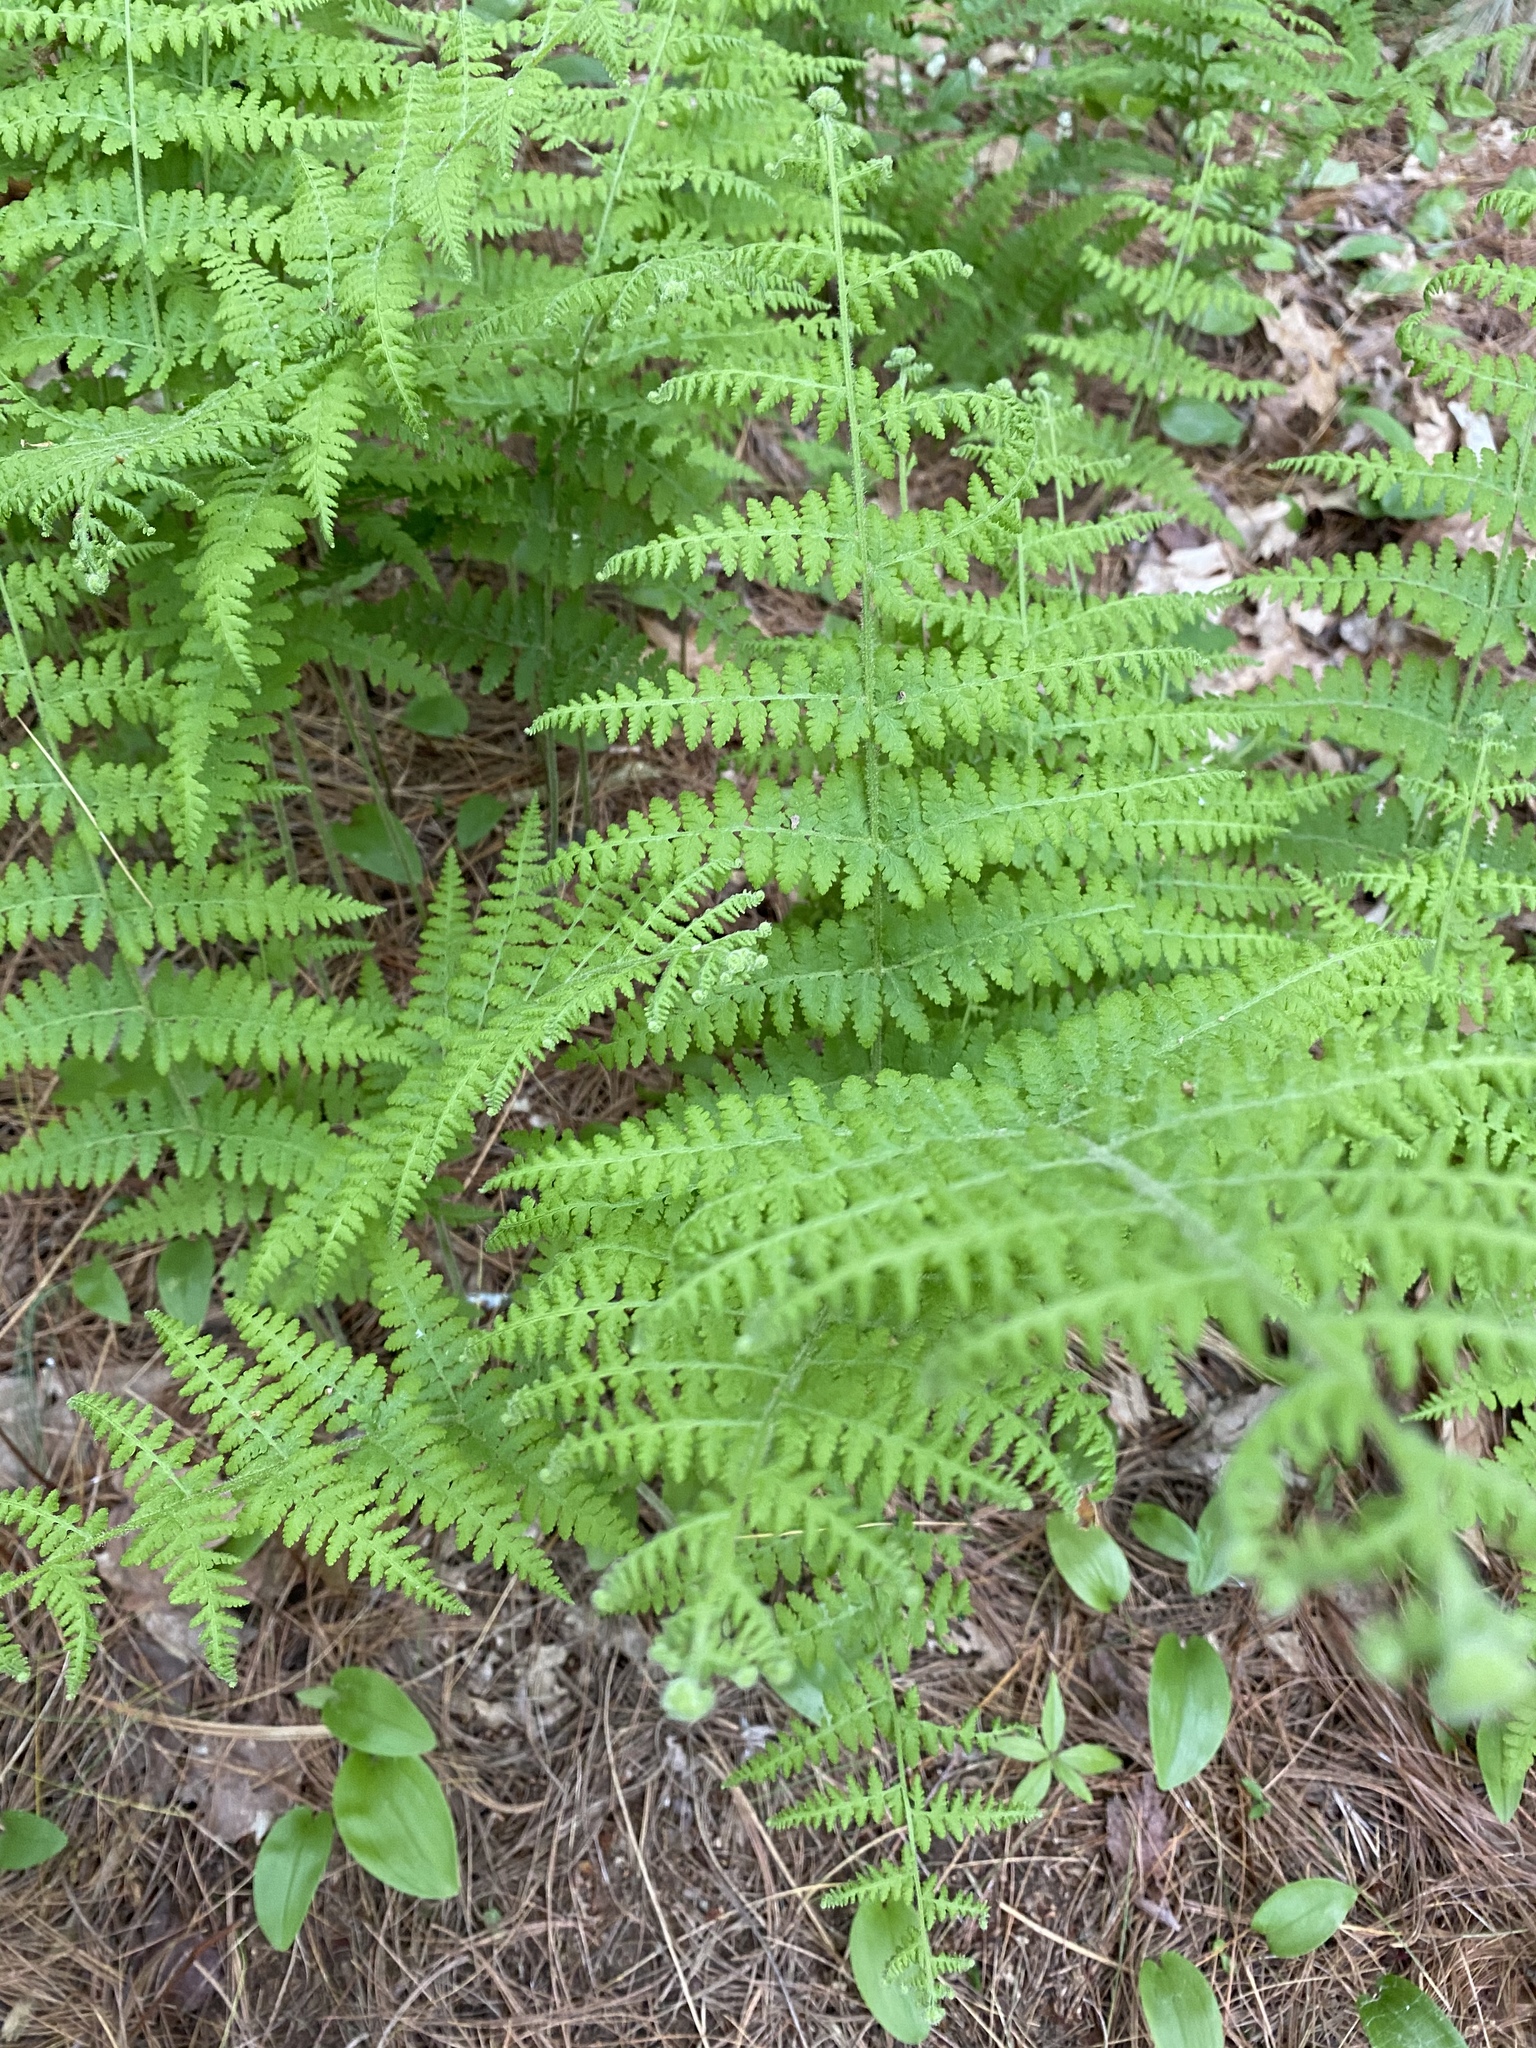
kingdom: Plantae
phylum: Tracheophyta
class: Polypodiopsida
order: Polypodiales
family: Dennstaedtiaceae
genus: Sitobolium
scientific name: Sitobolium punctilobum
